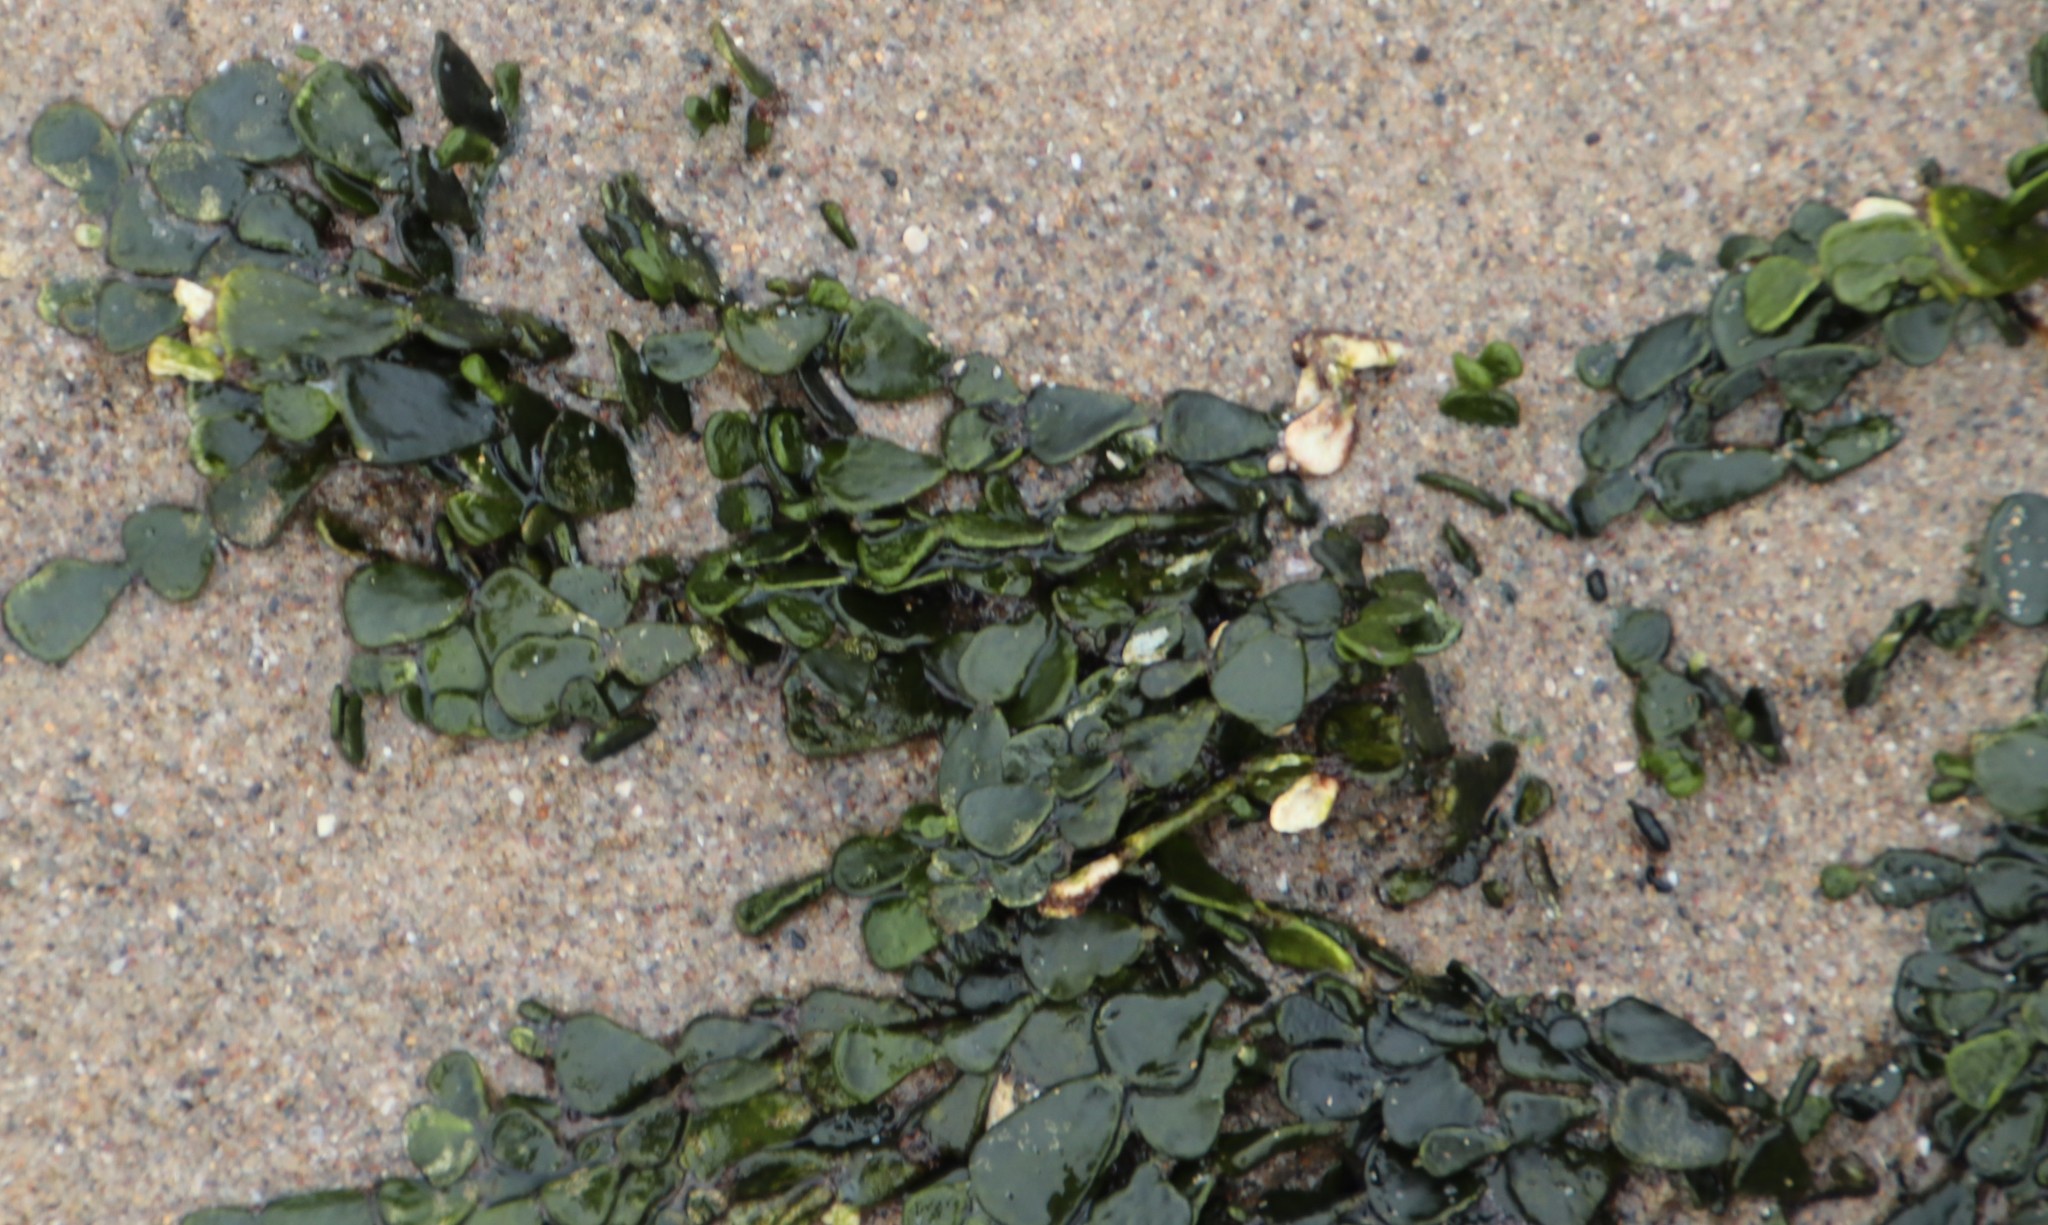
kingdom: Plantae
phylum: Chlorophyta
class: Ulvophyceae
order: Bryopsidales
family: Halimedaceae
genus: Halimeda
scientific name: Halimeda cuneata
